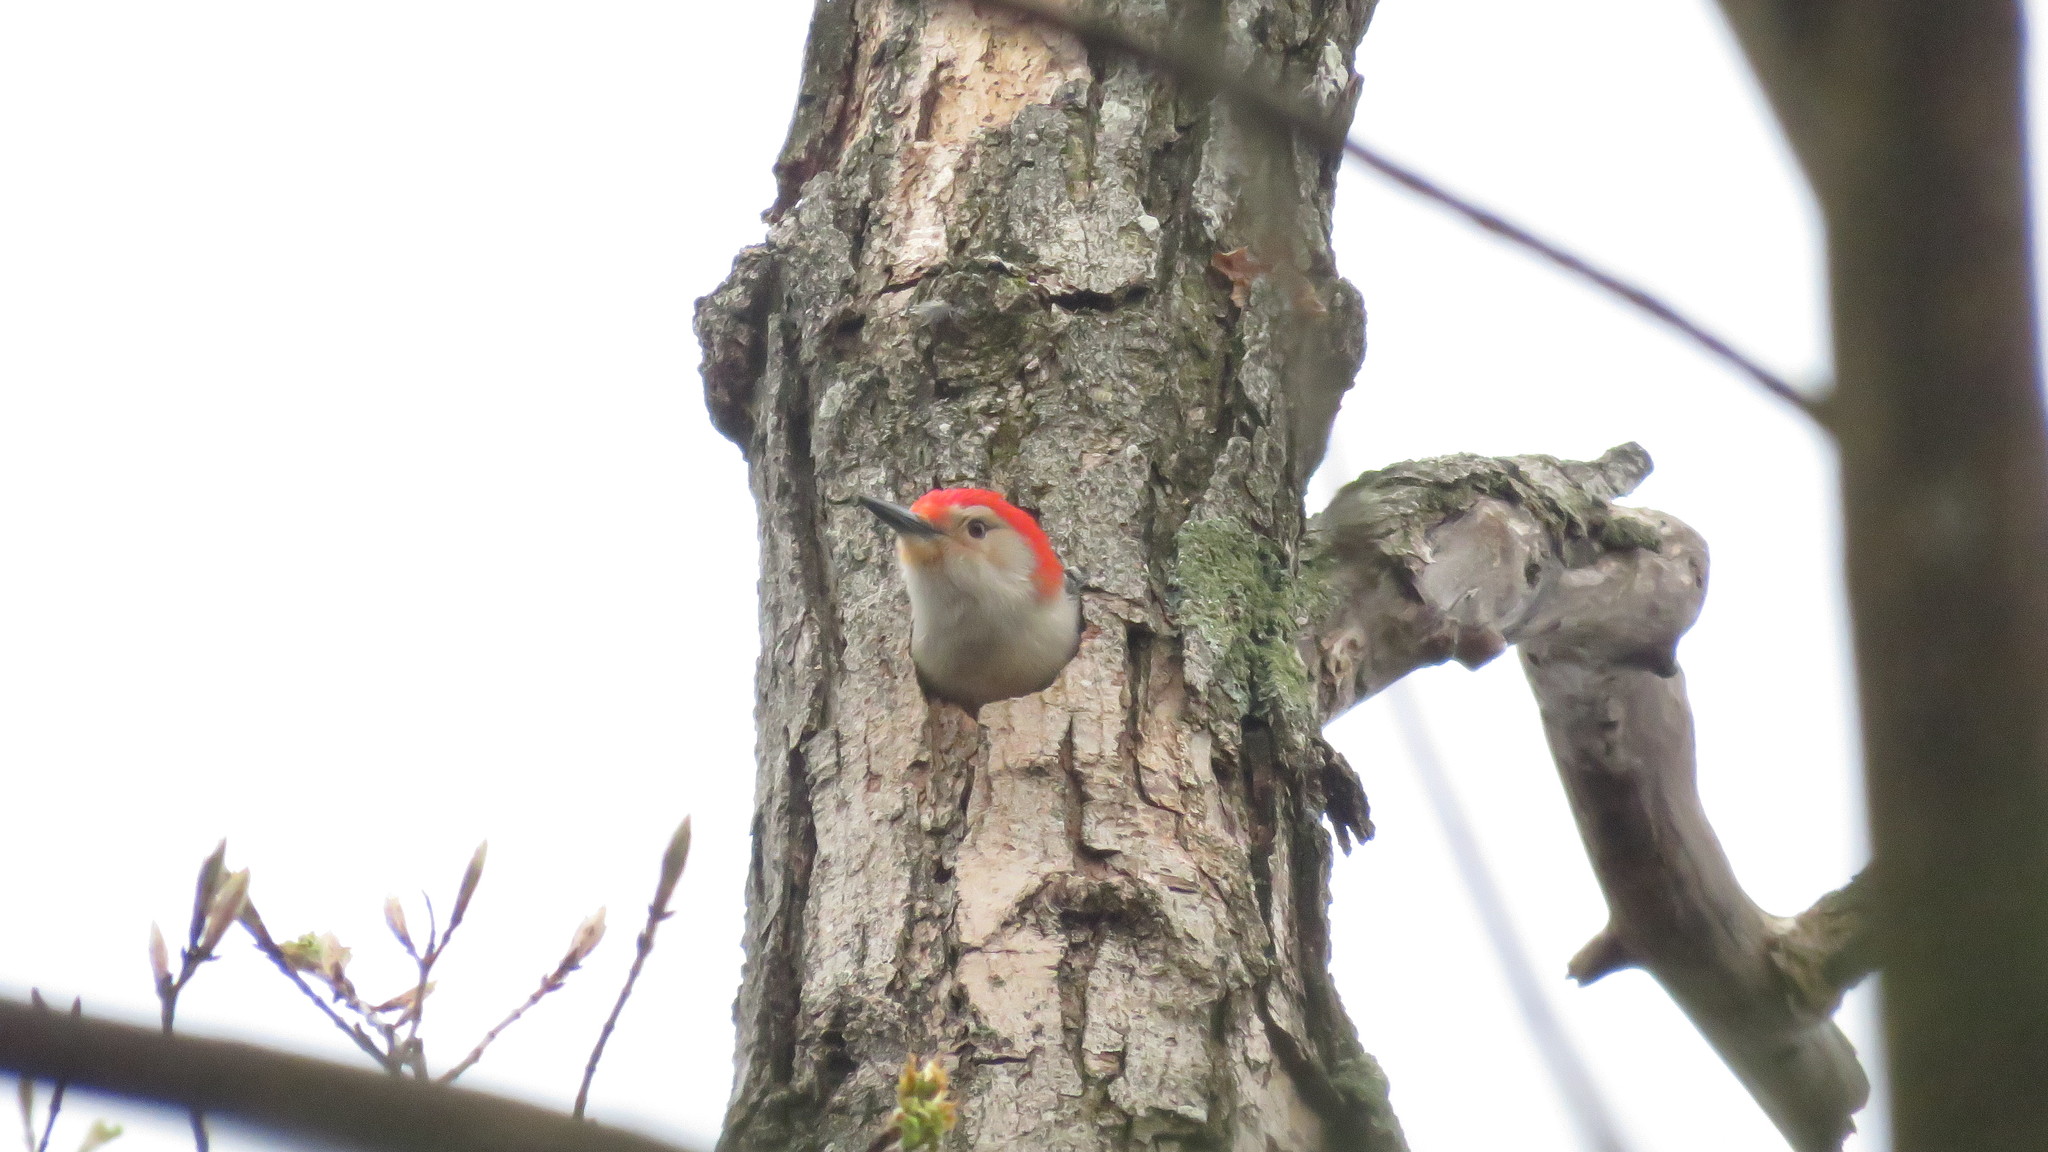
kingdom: Animalia
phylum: Chordata
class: Aves
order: Piciformes
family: Picidae
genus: Melanerpes
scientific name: Melanerpes carolinus
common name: Red-bellied woodpecker
